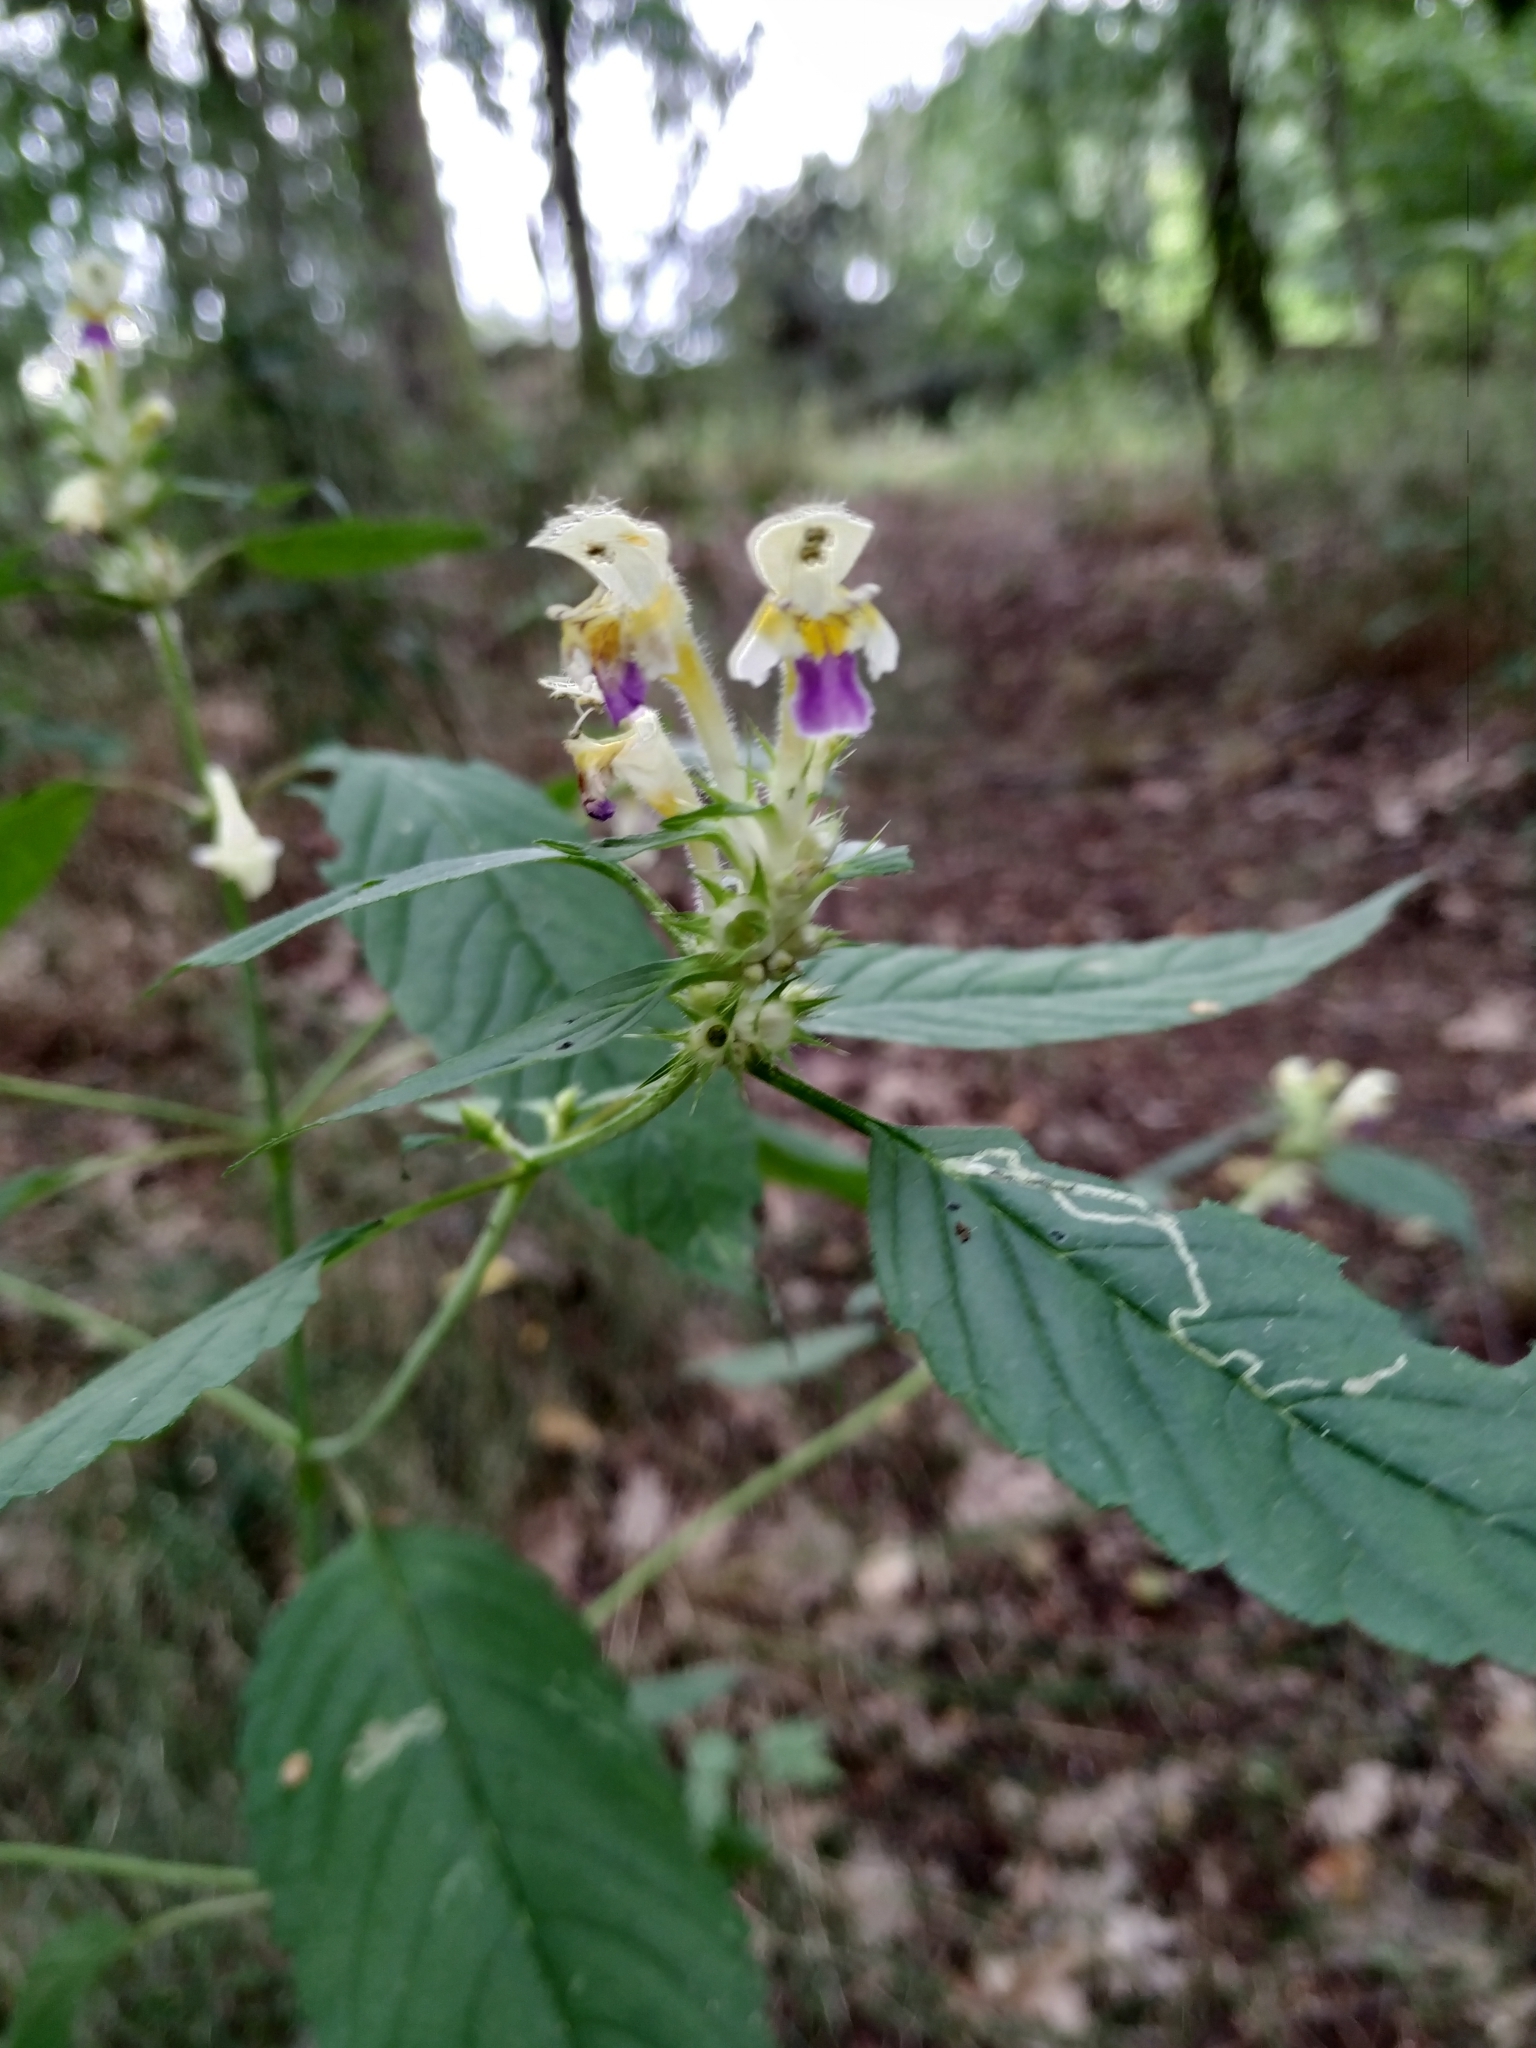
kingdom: Plantae
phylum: Tracheophyta
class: Magnoliopsida
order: Lamiales
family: Lamiaceae
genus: Galeopsis
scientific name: Galeopsis speciosa
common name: Large-flowered hemp-nettle
